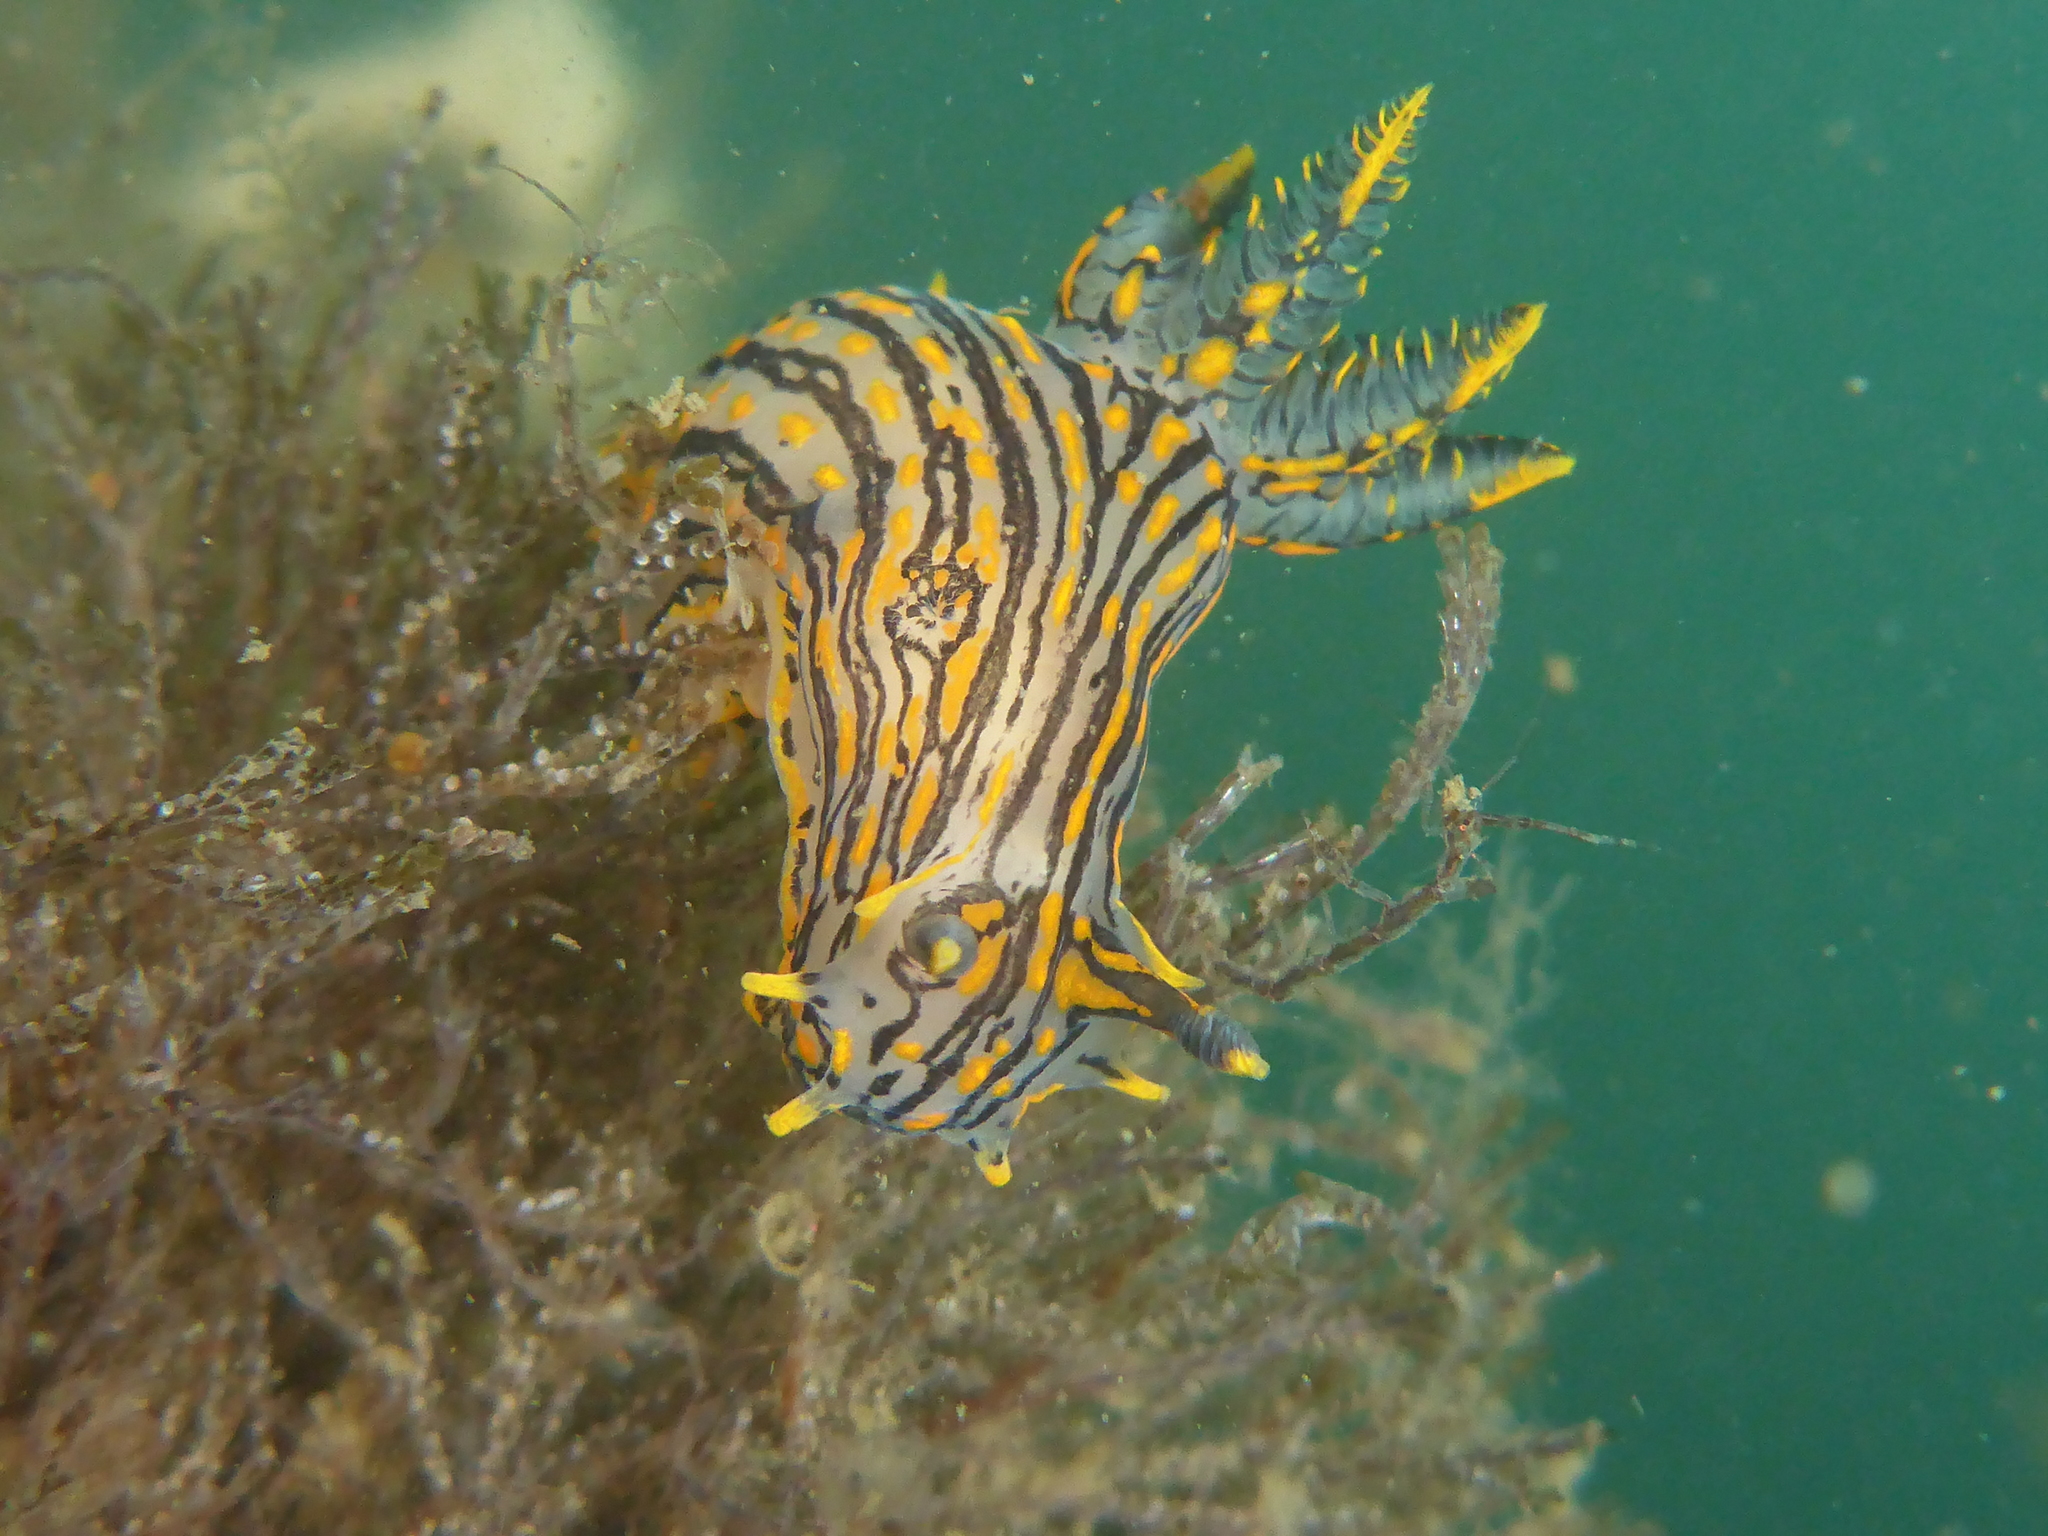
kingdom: Animalia
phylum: Mollusca
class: Gastropoda
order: Nudibranchia
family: Polyceridae
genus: Polycera
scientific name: Polycera atra
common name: Orange-spike polycera
